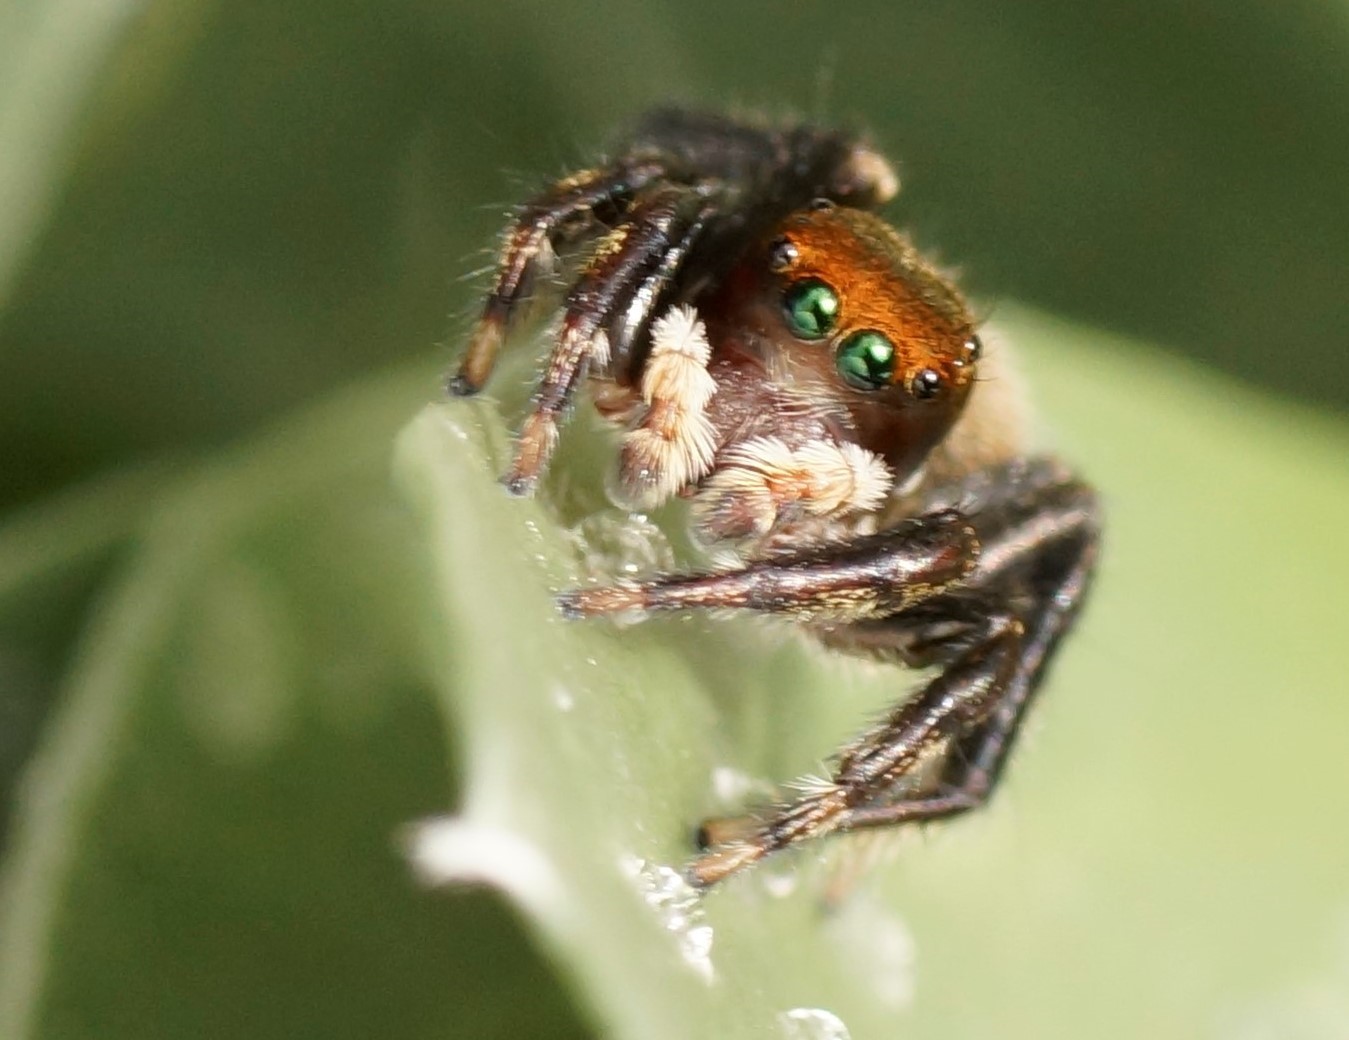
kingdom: Animalia
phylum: Arthropoda
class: Arachnida
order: Araneae
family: Salticidae
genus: Maratus
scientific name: Maratus griseus
